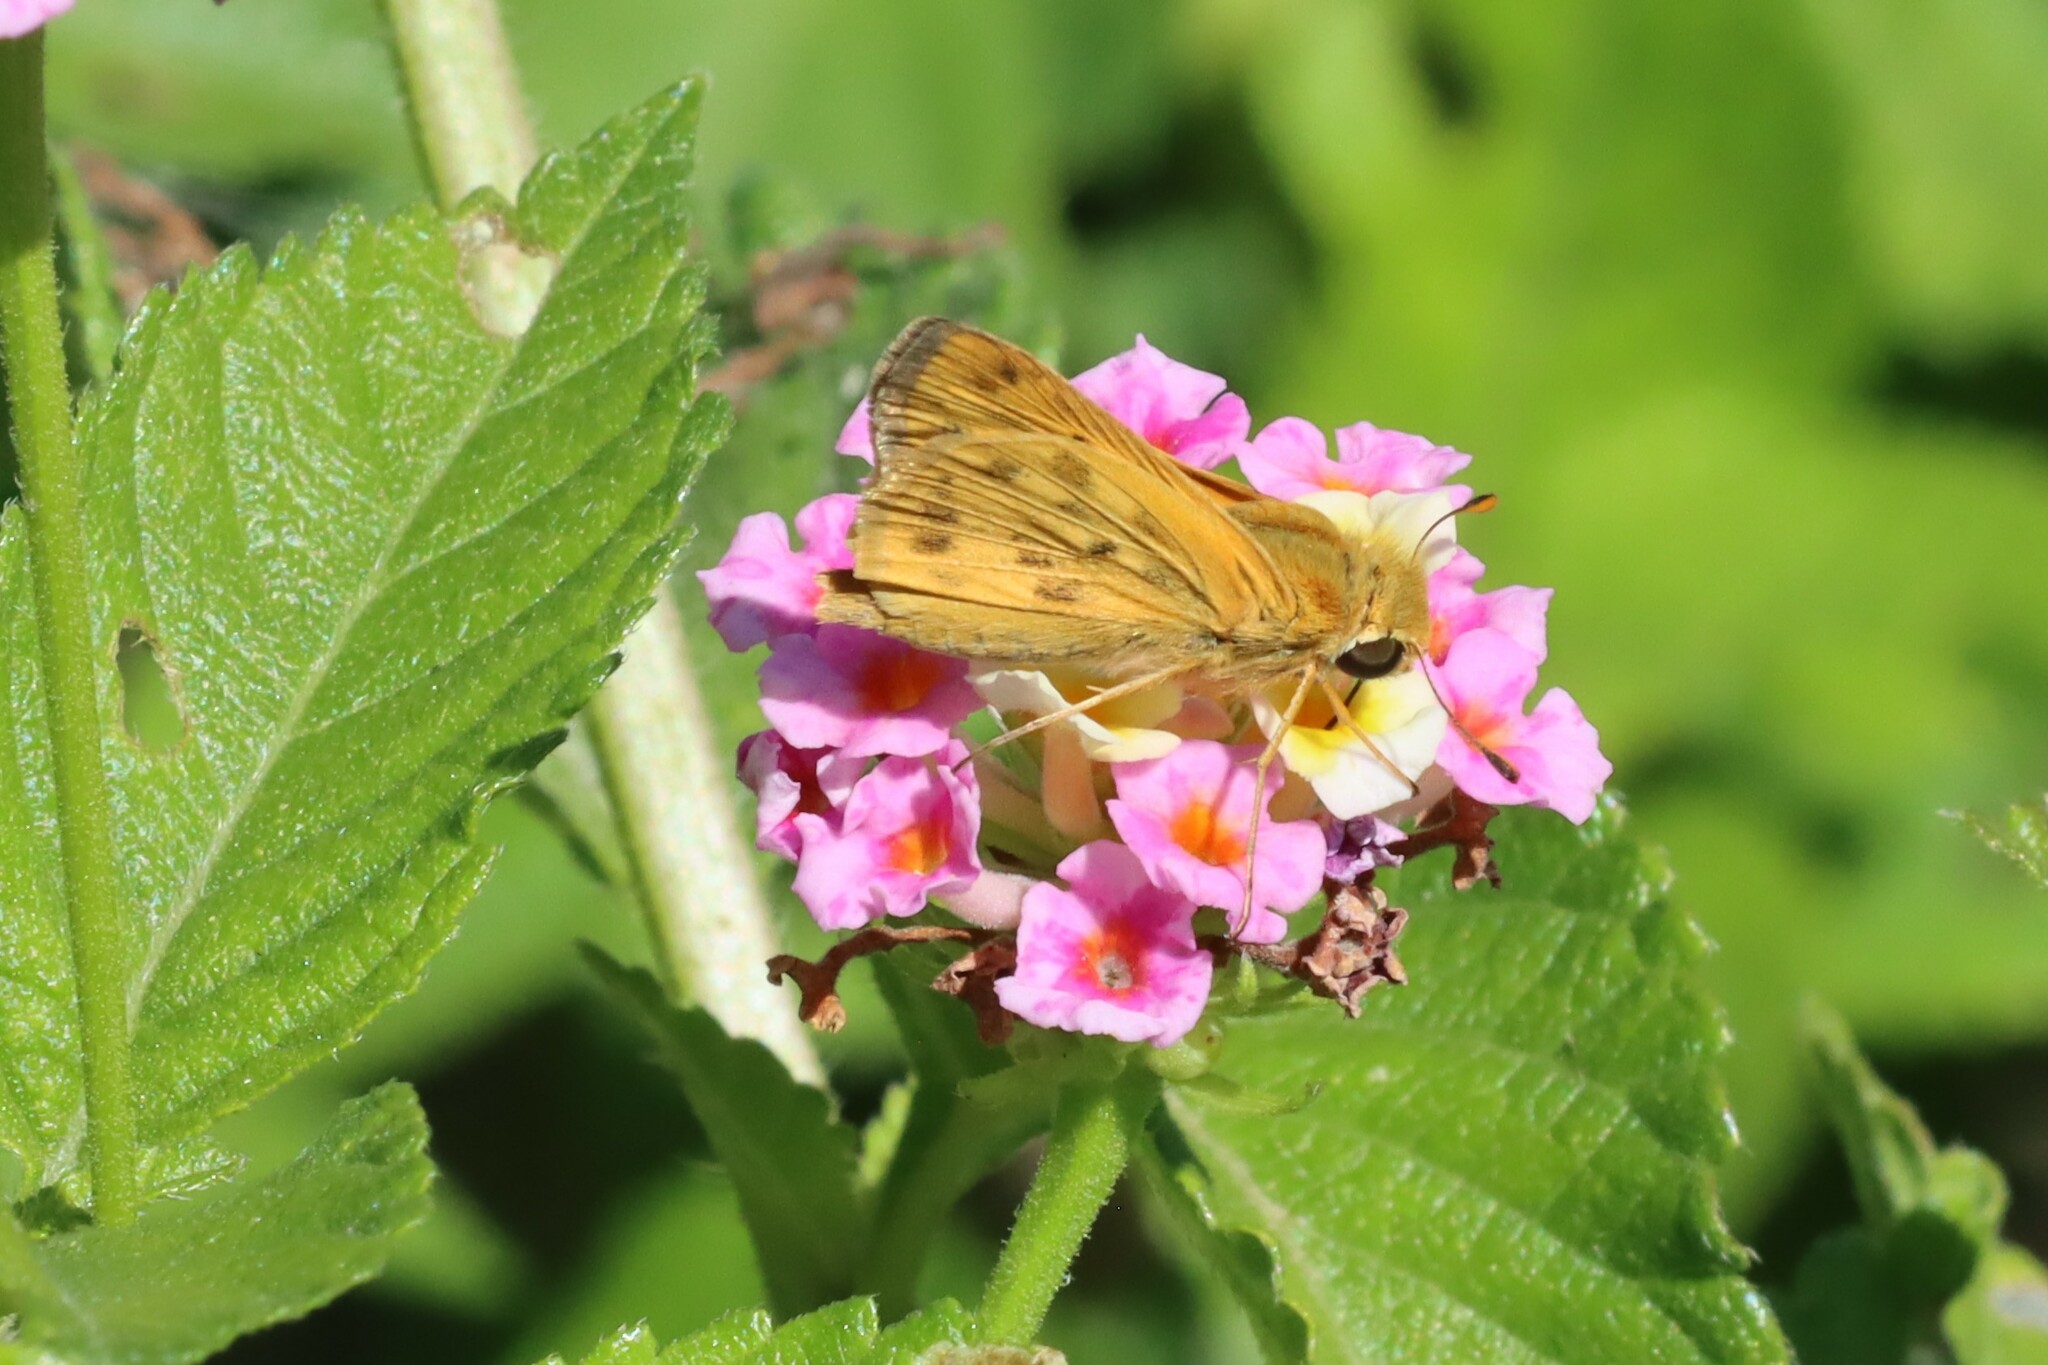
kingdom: Animalia
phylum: Arthropoda
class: Insecta
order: Lepidoptera
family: Hesperiidae
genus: Hylephila
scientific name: Hylephila phyleus
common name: Fiery skipper
